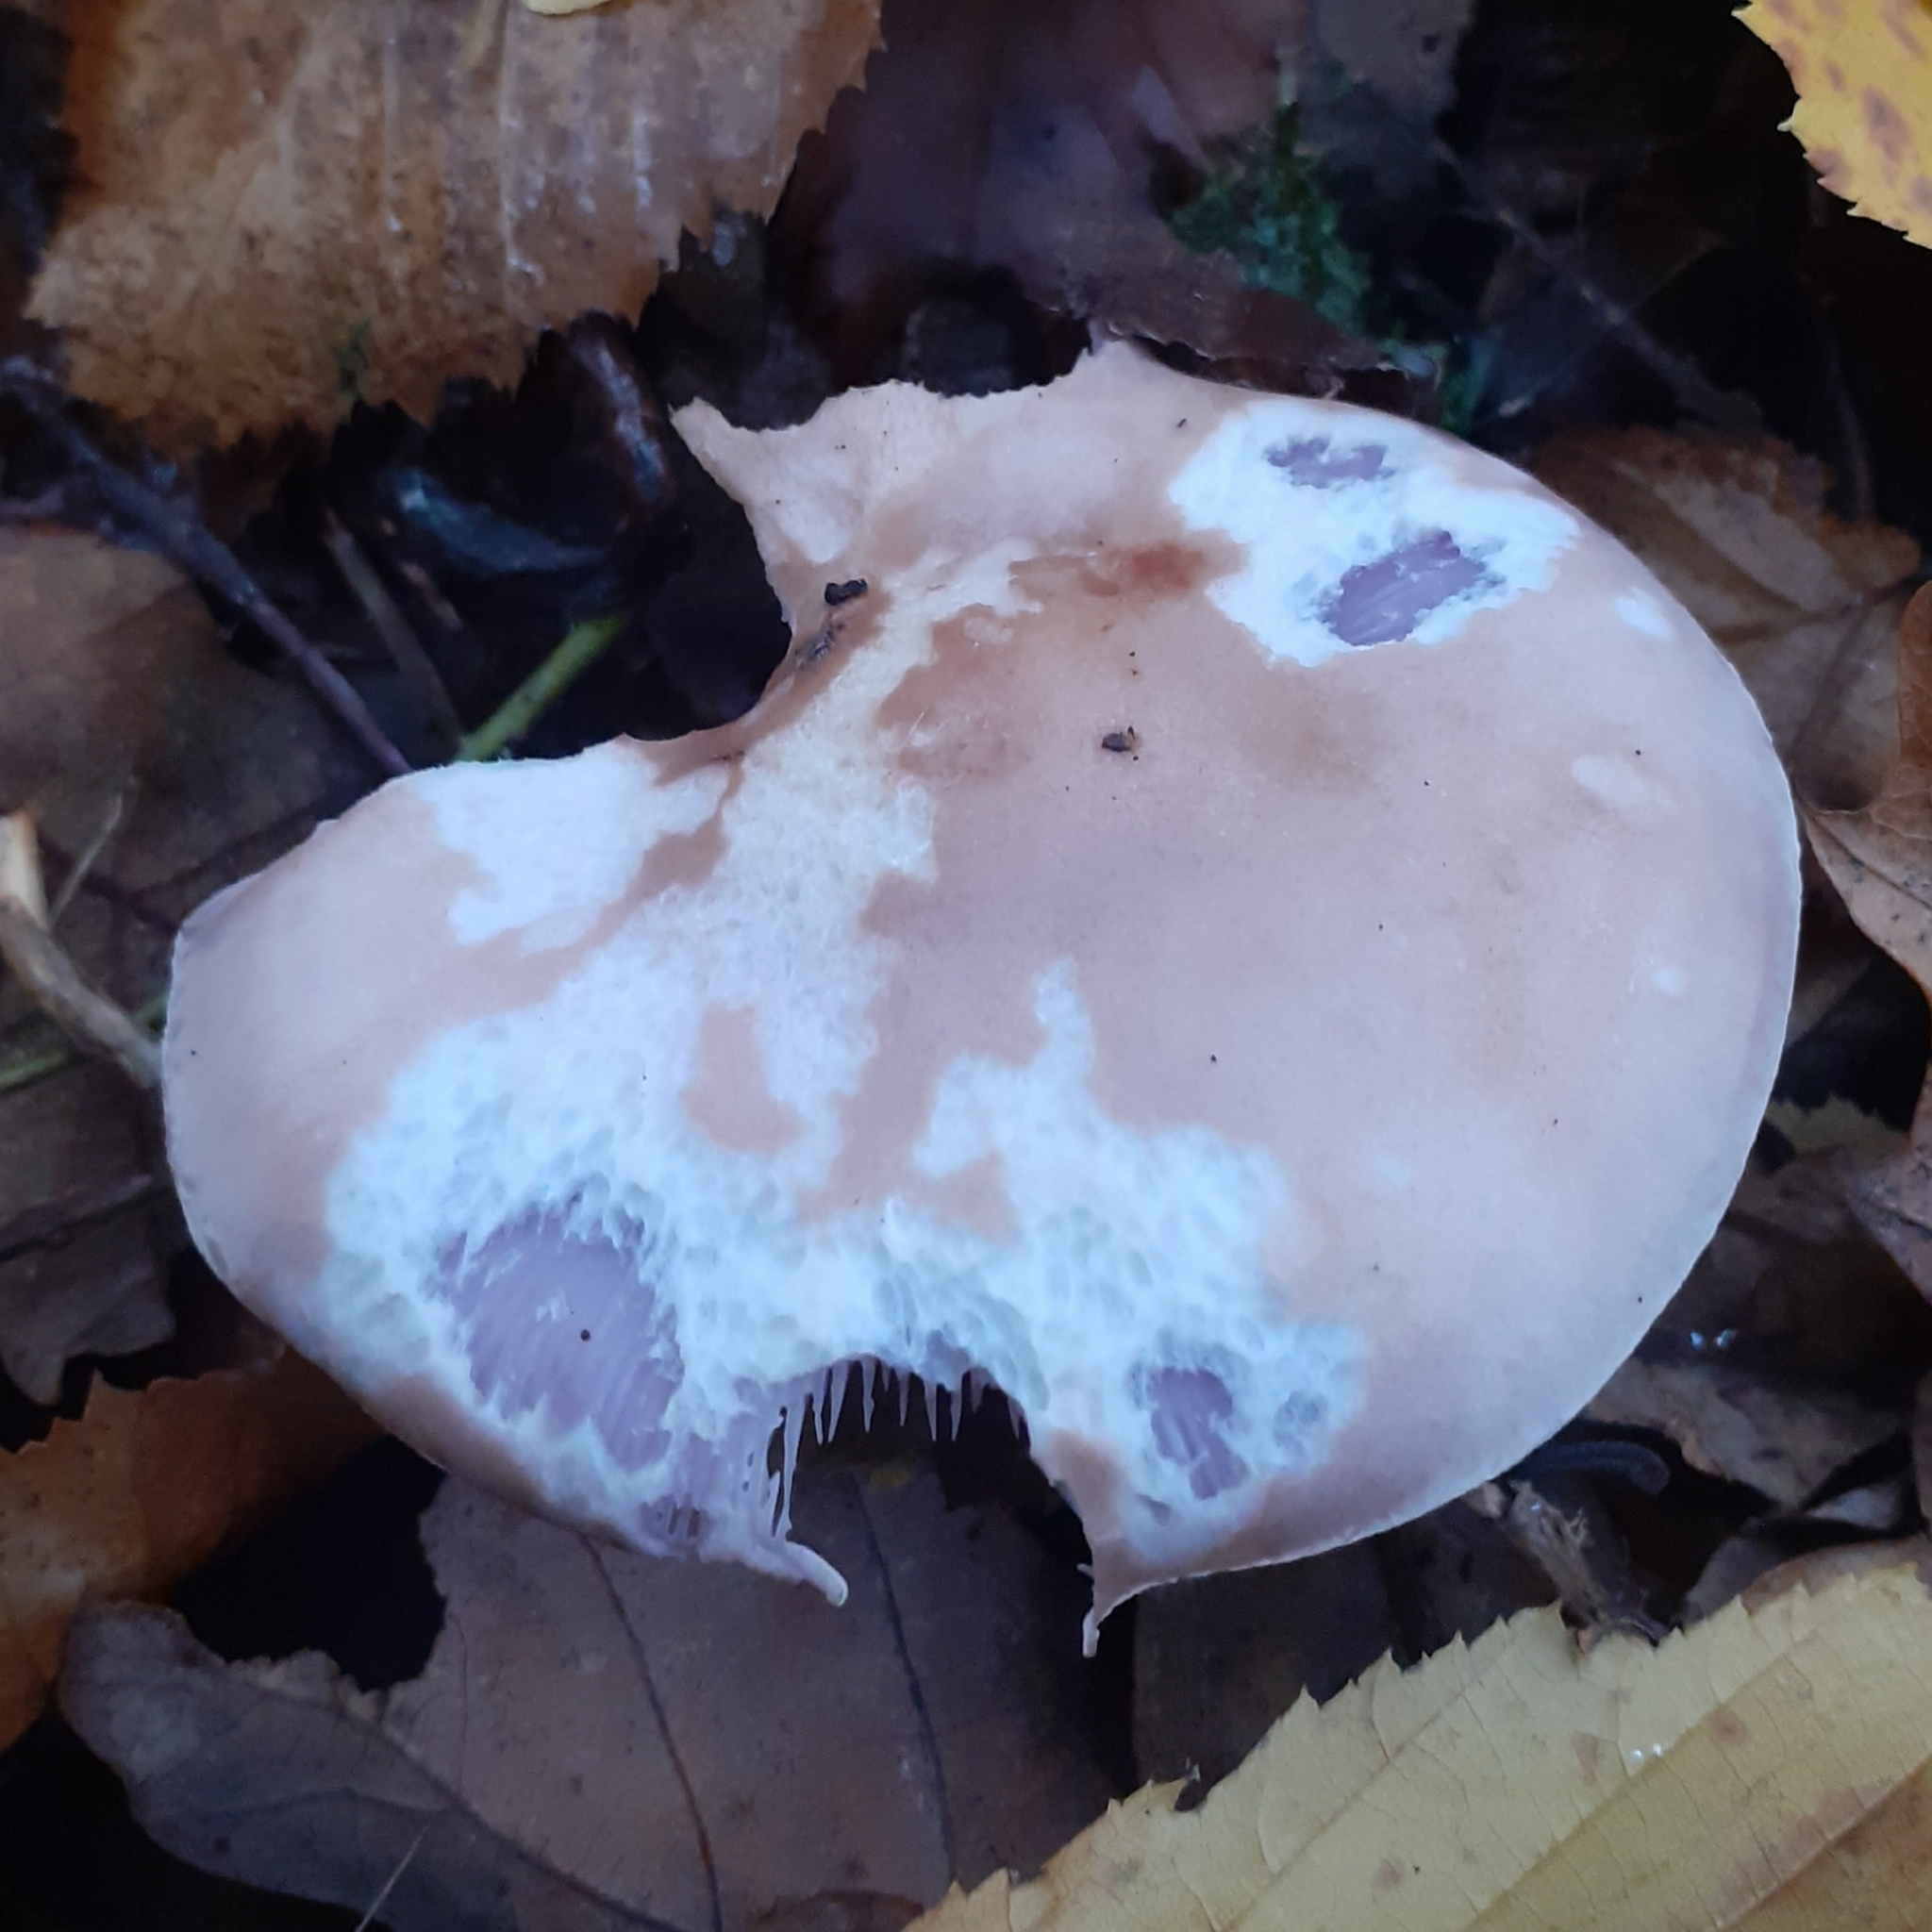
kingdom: Fungi
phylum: Basidiomycota
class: Agaricomycetes
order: Agaricales
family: Tricholomataceae
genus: Collybia
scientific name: Collybia
